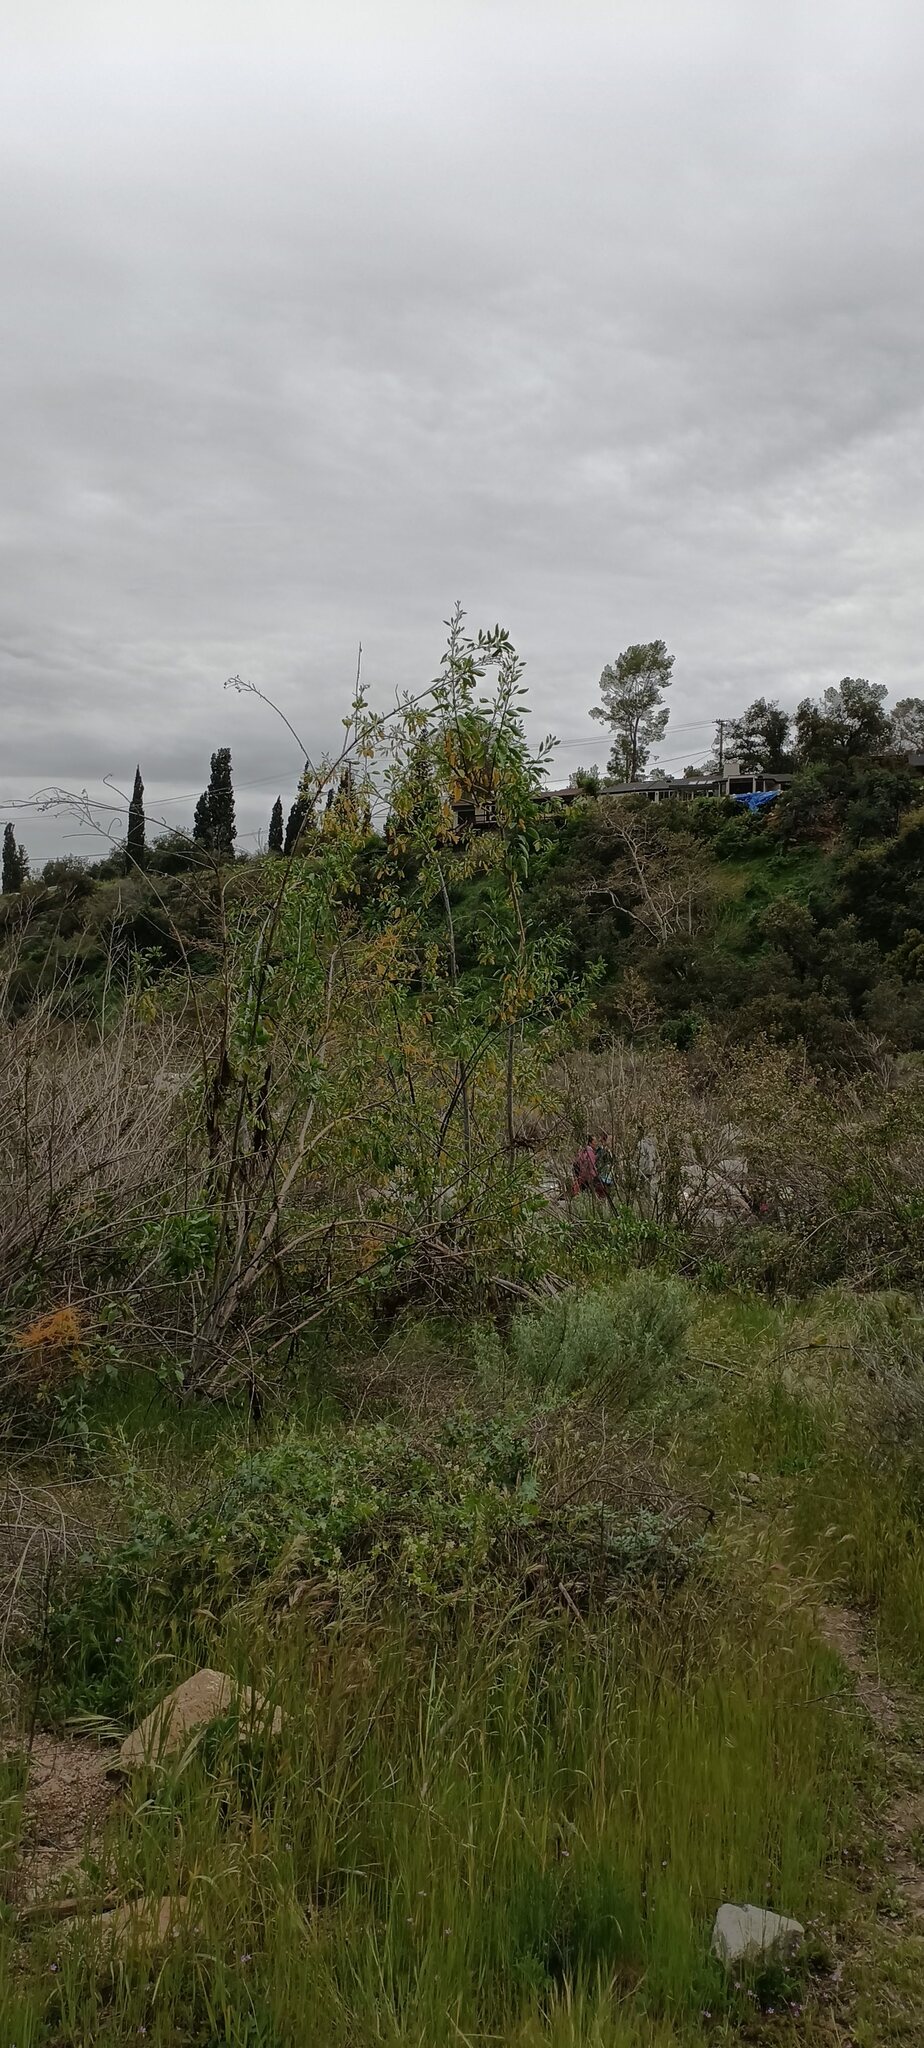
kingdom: Plantae
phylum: Tracheophyta
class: Magnoliopsida
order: Solanales
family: Solanaceae
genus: Nicotiana
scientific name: Nicotiana glauca
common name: Tree tobacco
